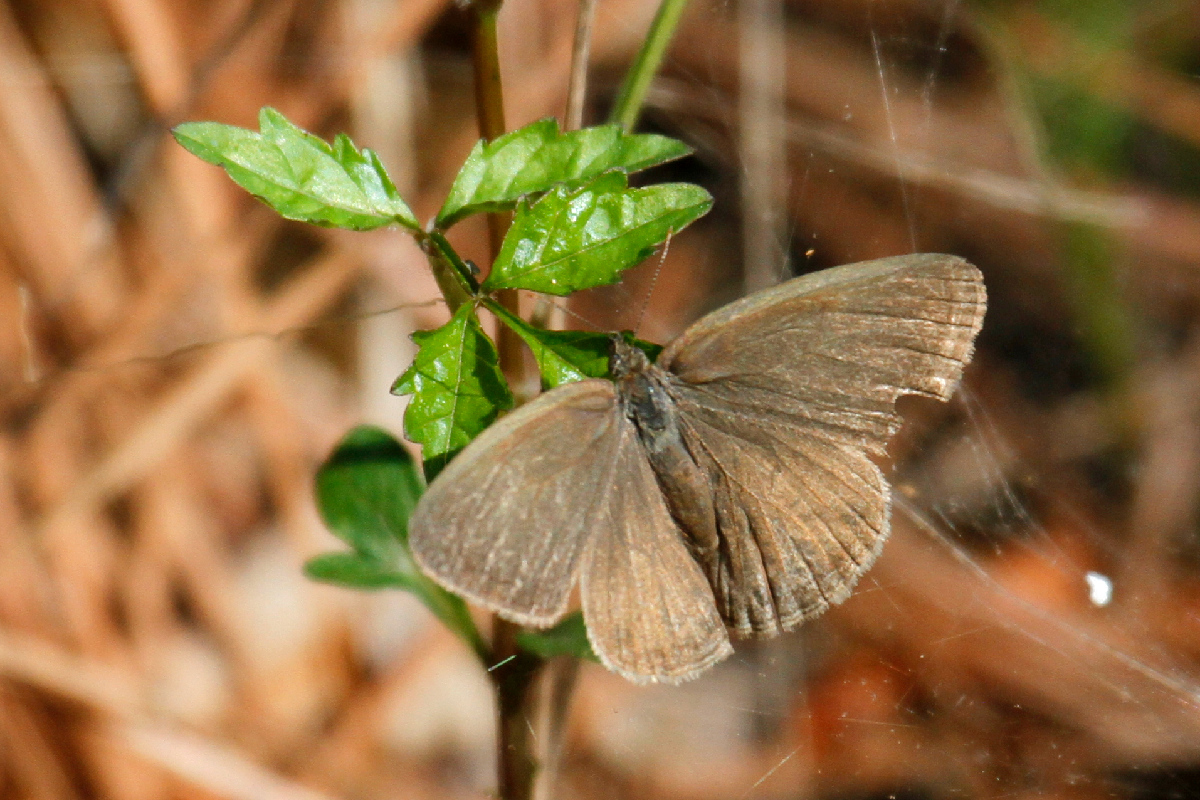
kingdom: Animalia
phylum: Arthropoda
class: Insecta
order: Lepidoptera
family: Nymphalidae
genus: Hermeuptychia
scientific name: Hermeuptychia hermes
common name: Hermes satyr
